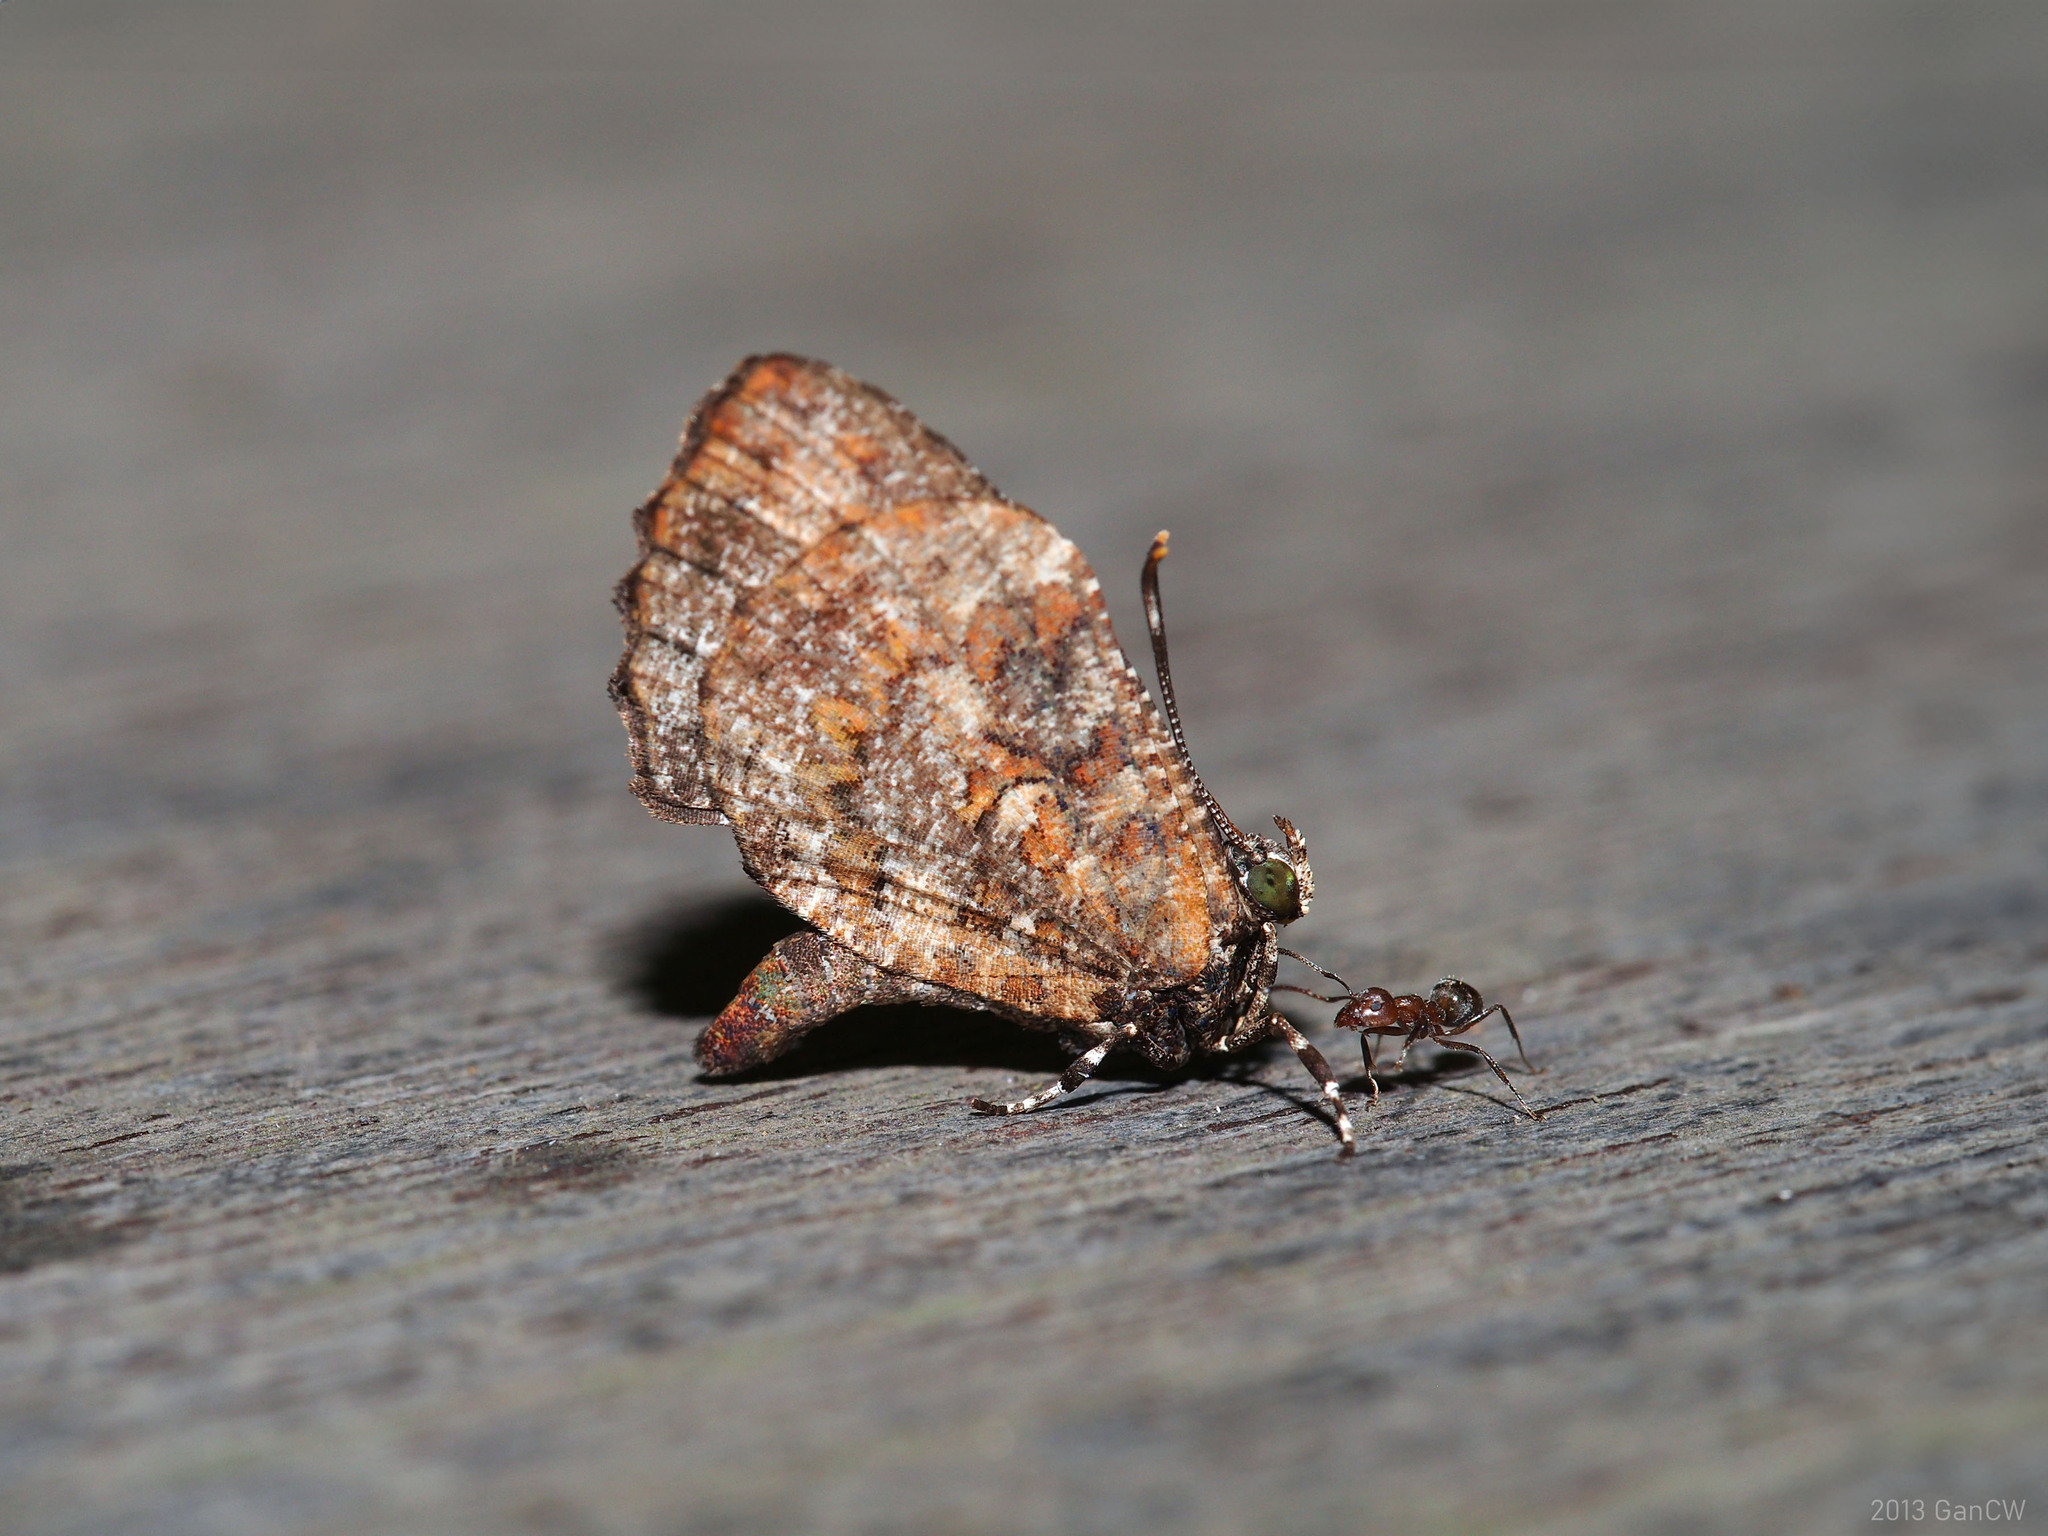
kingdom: Animalia
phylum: Arthropoda
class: Insecta
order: Lepidoptera
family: Lycaenidae
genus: Logania
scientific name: Logania marmorata
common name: Pale mottle
